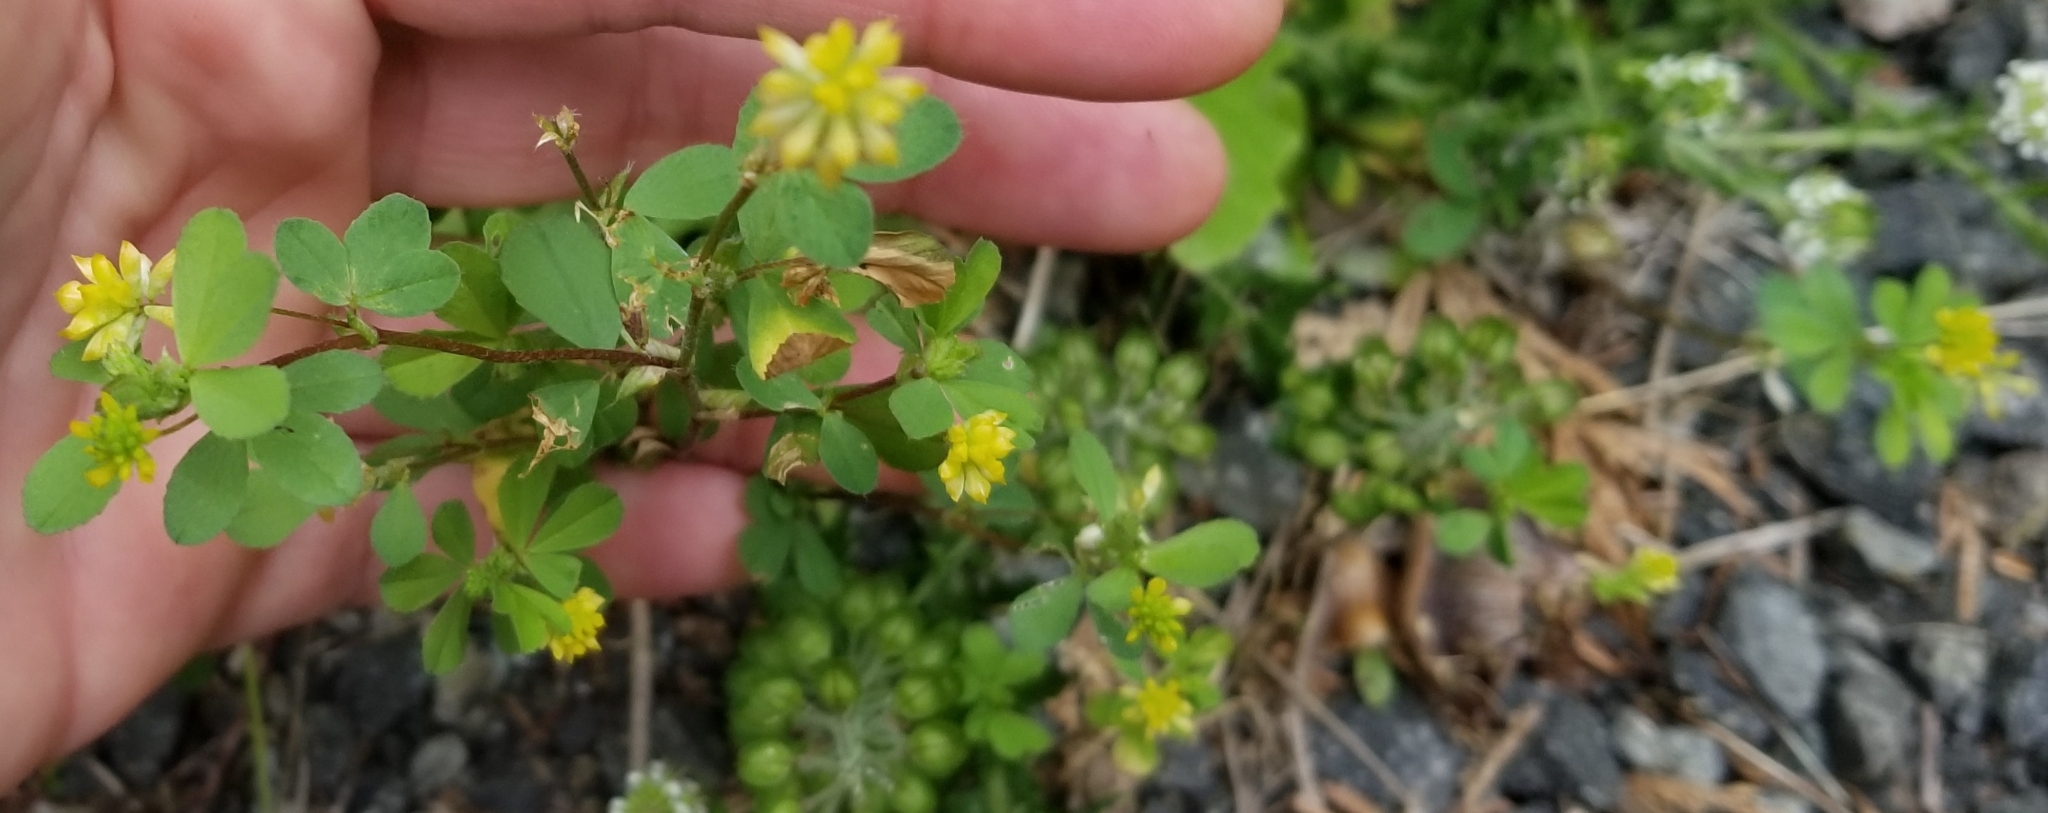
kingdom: Plantae
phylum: Tracheophyta
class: Magnoliopsida
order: Fabales
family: Fabaceae
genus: Trifolium
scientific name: Trifolium dubium
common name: Suckling clover
